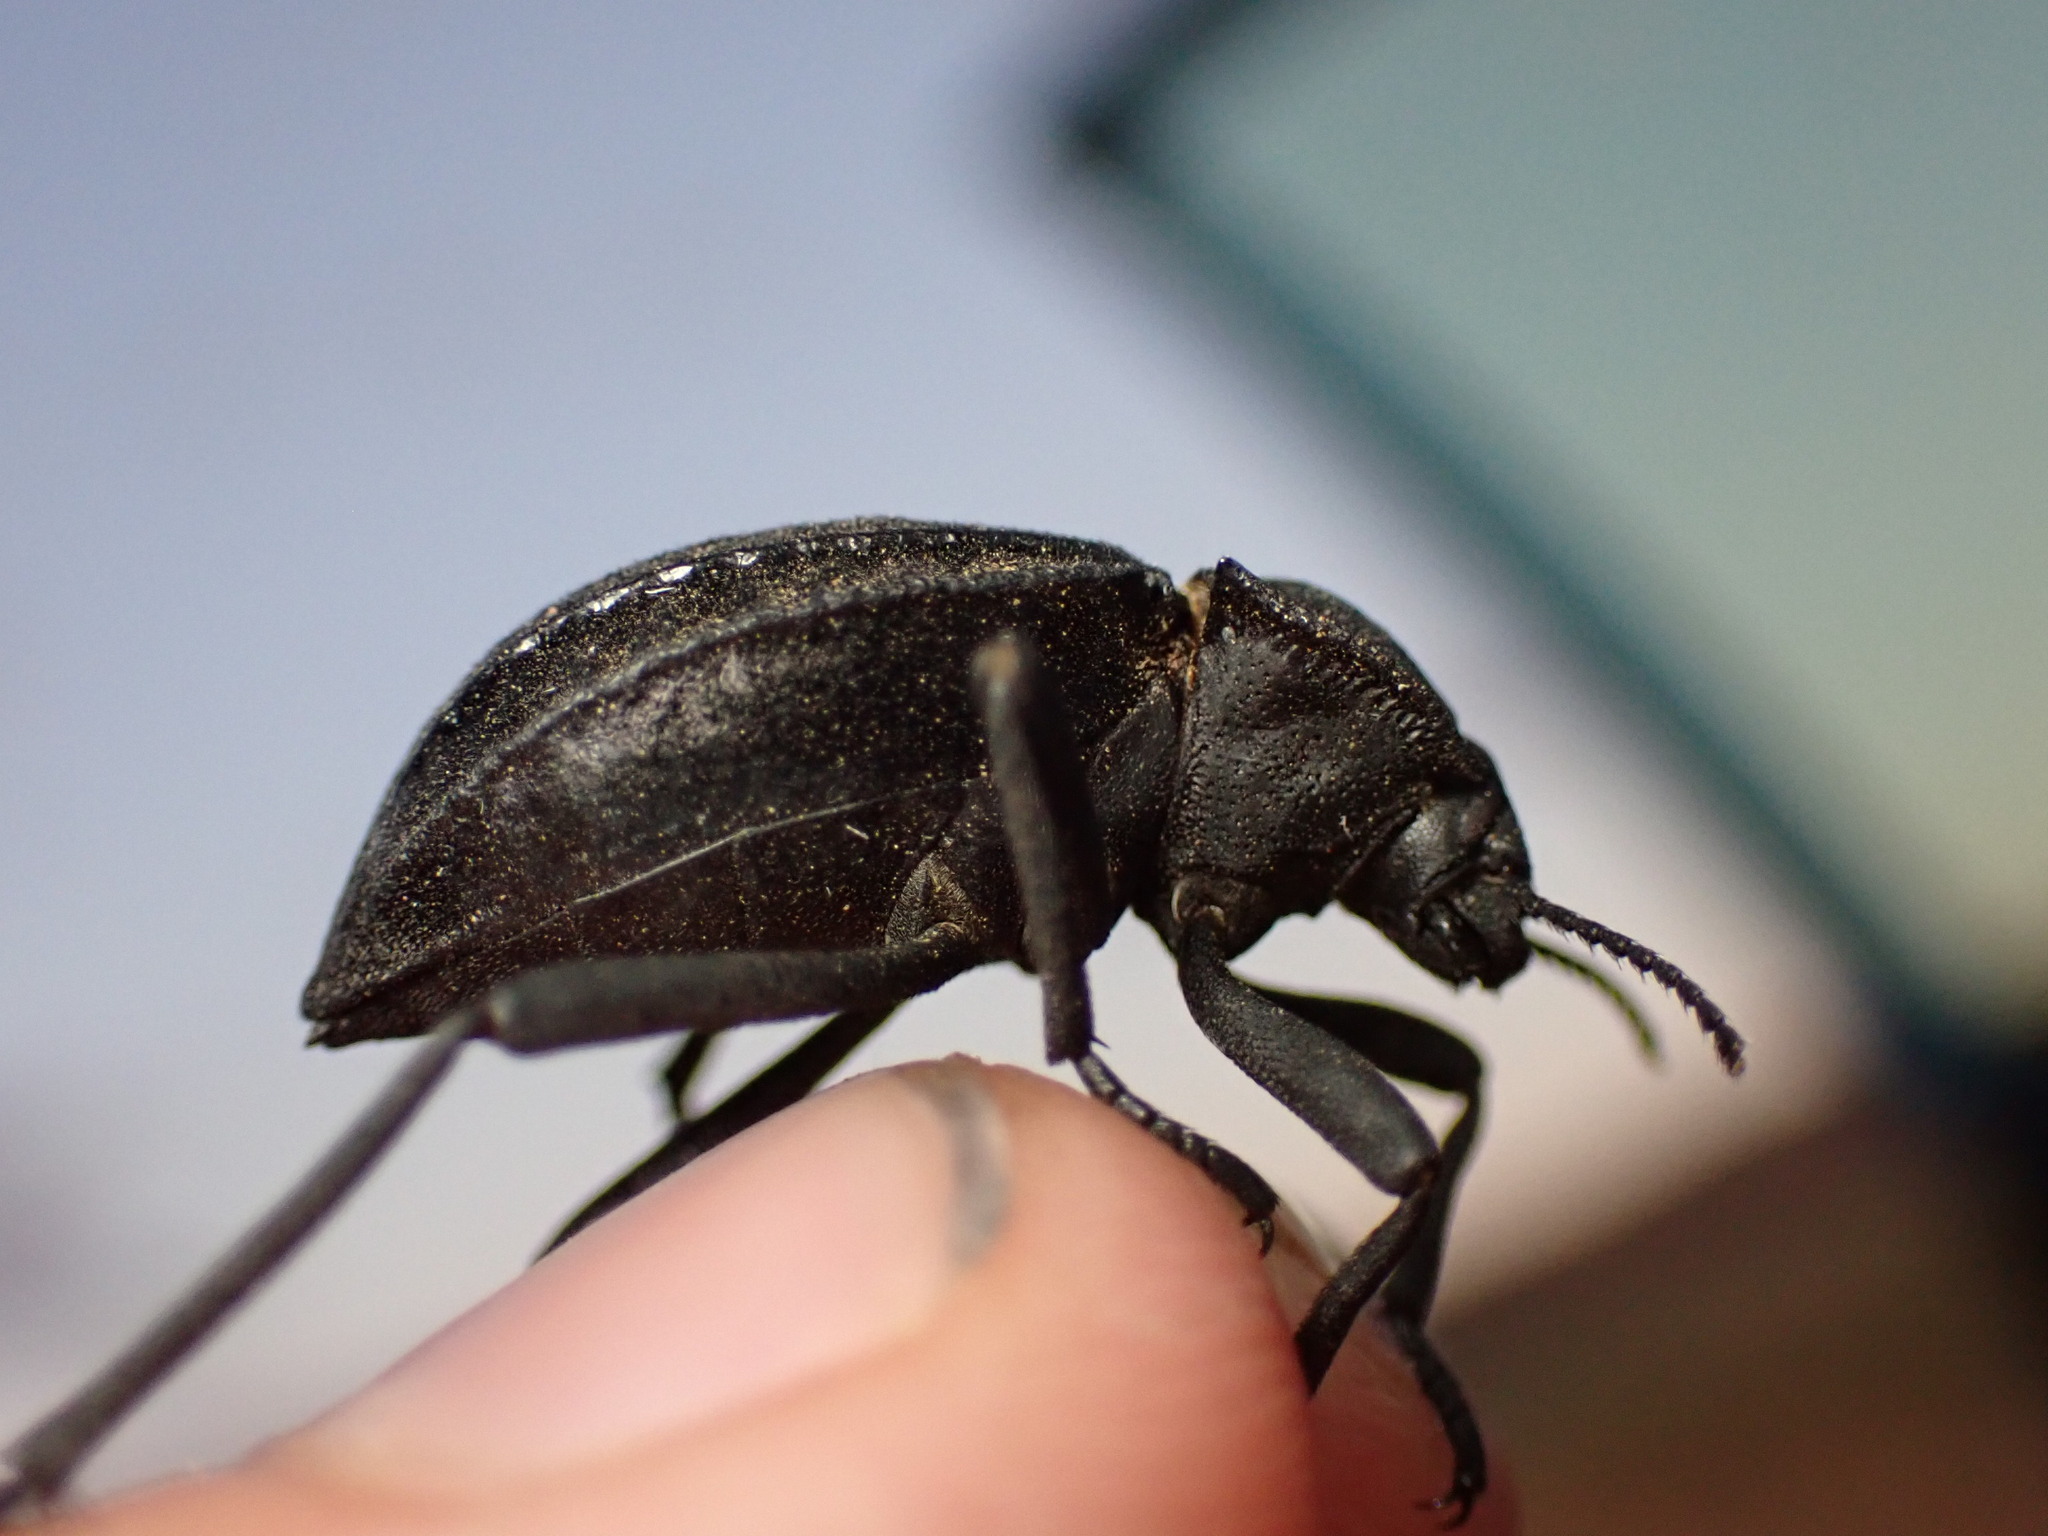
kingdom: Animalia
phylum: Arthropoda
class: Insecta
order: Coleoptera
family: Tenebrionidae
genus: Philolithus
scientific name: Philolithus sordidus
